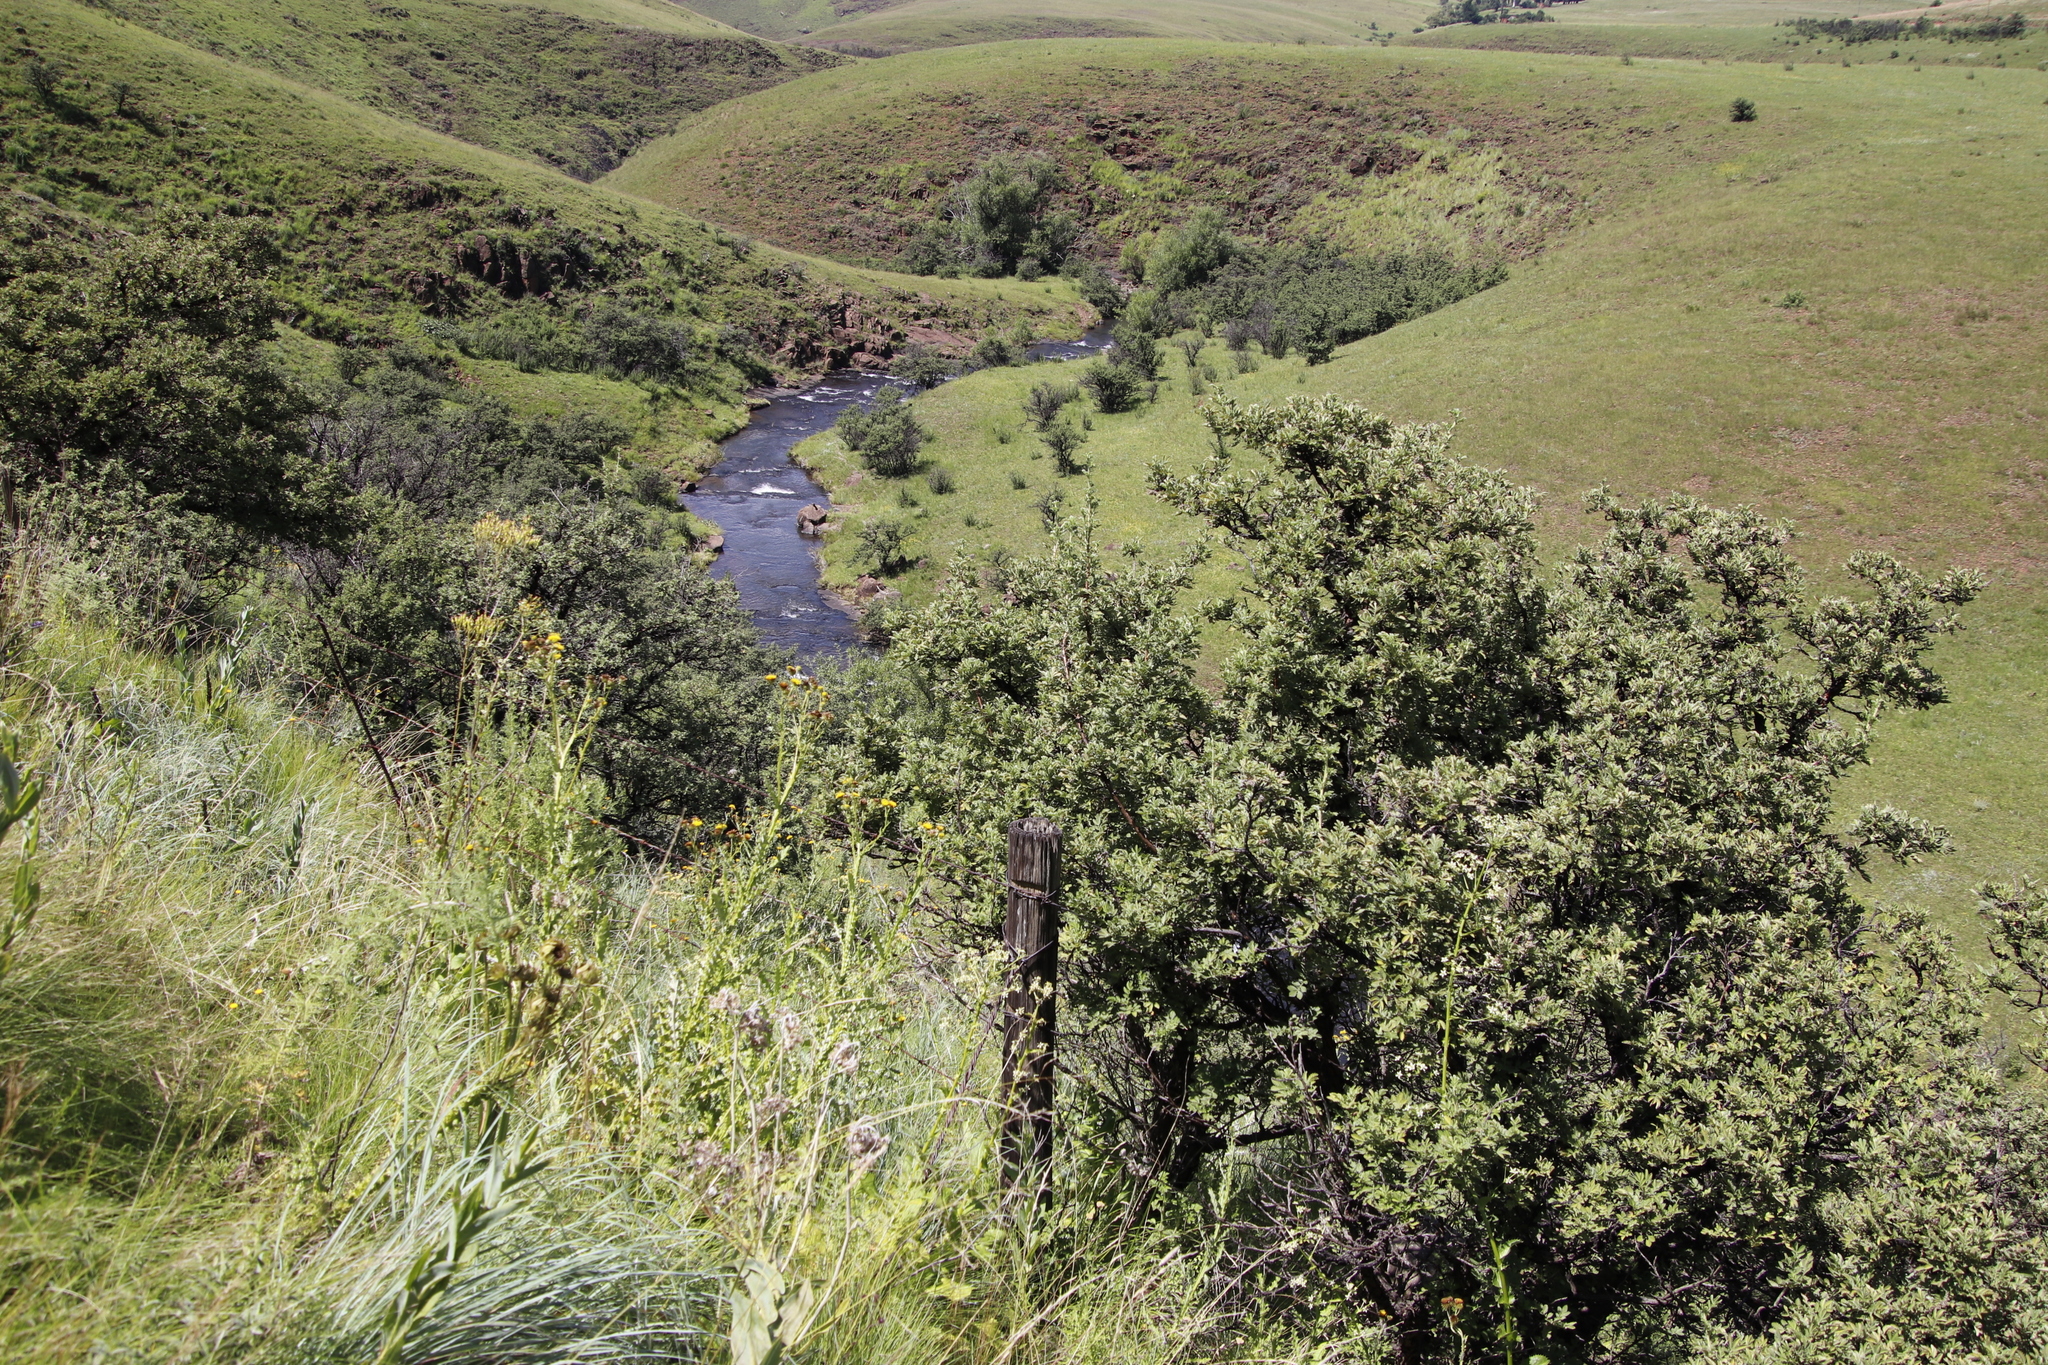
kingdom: Plantae
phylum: Tracheophyta
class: Magnoliopsida
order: Rosales
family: Rosaceae
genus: Leucosidea
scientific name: Leucosidea sericea
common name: Oldwood
